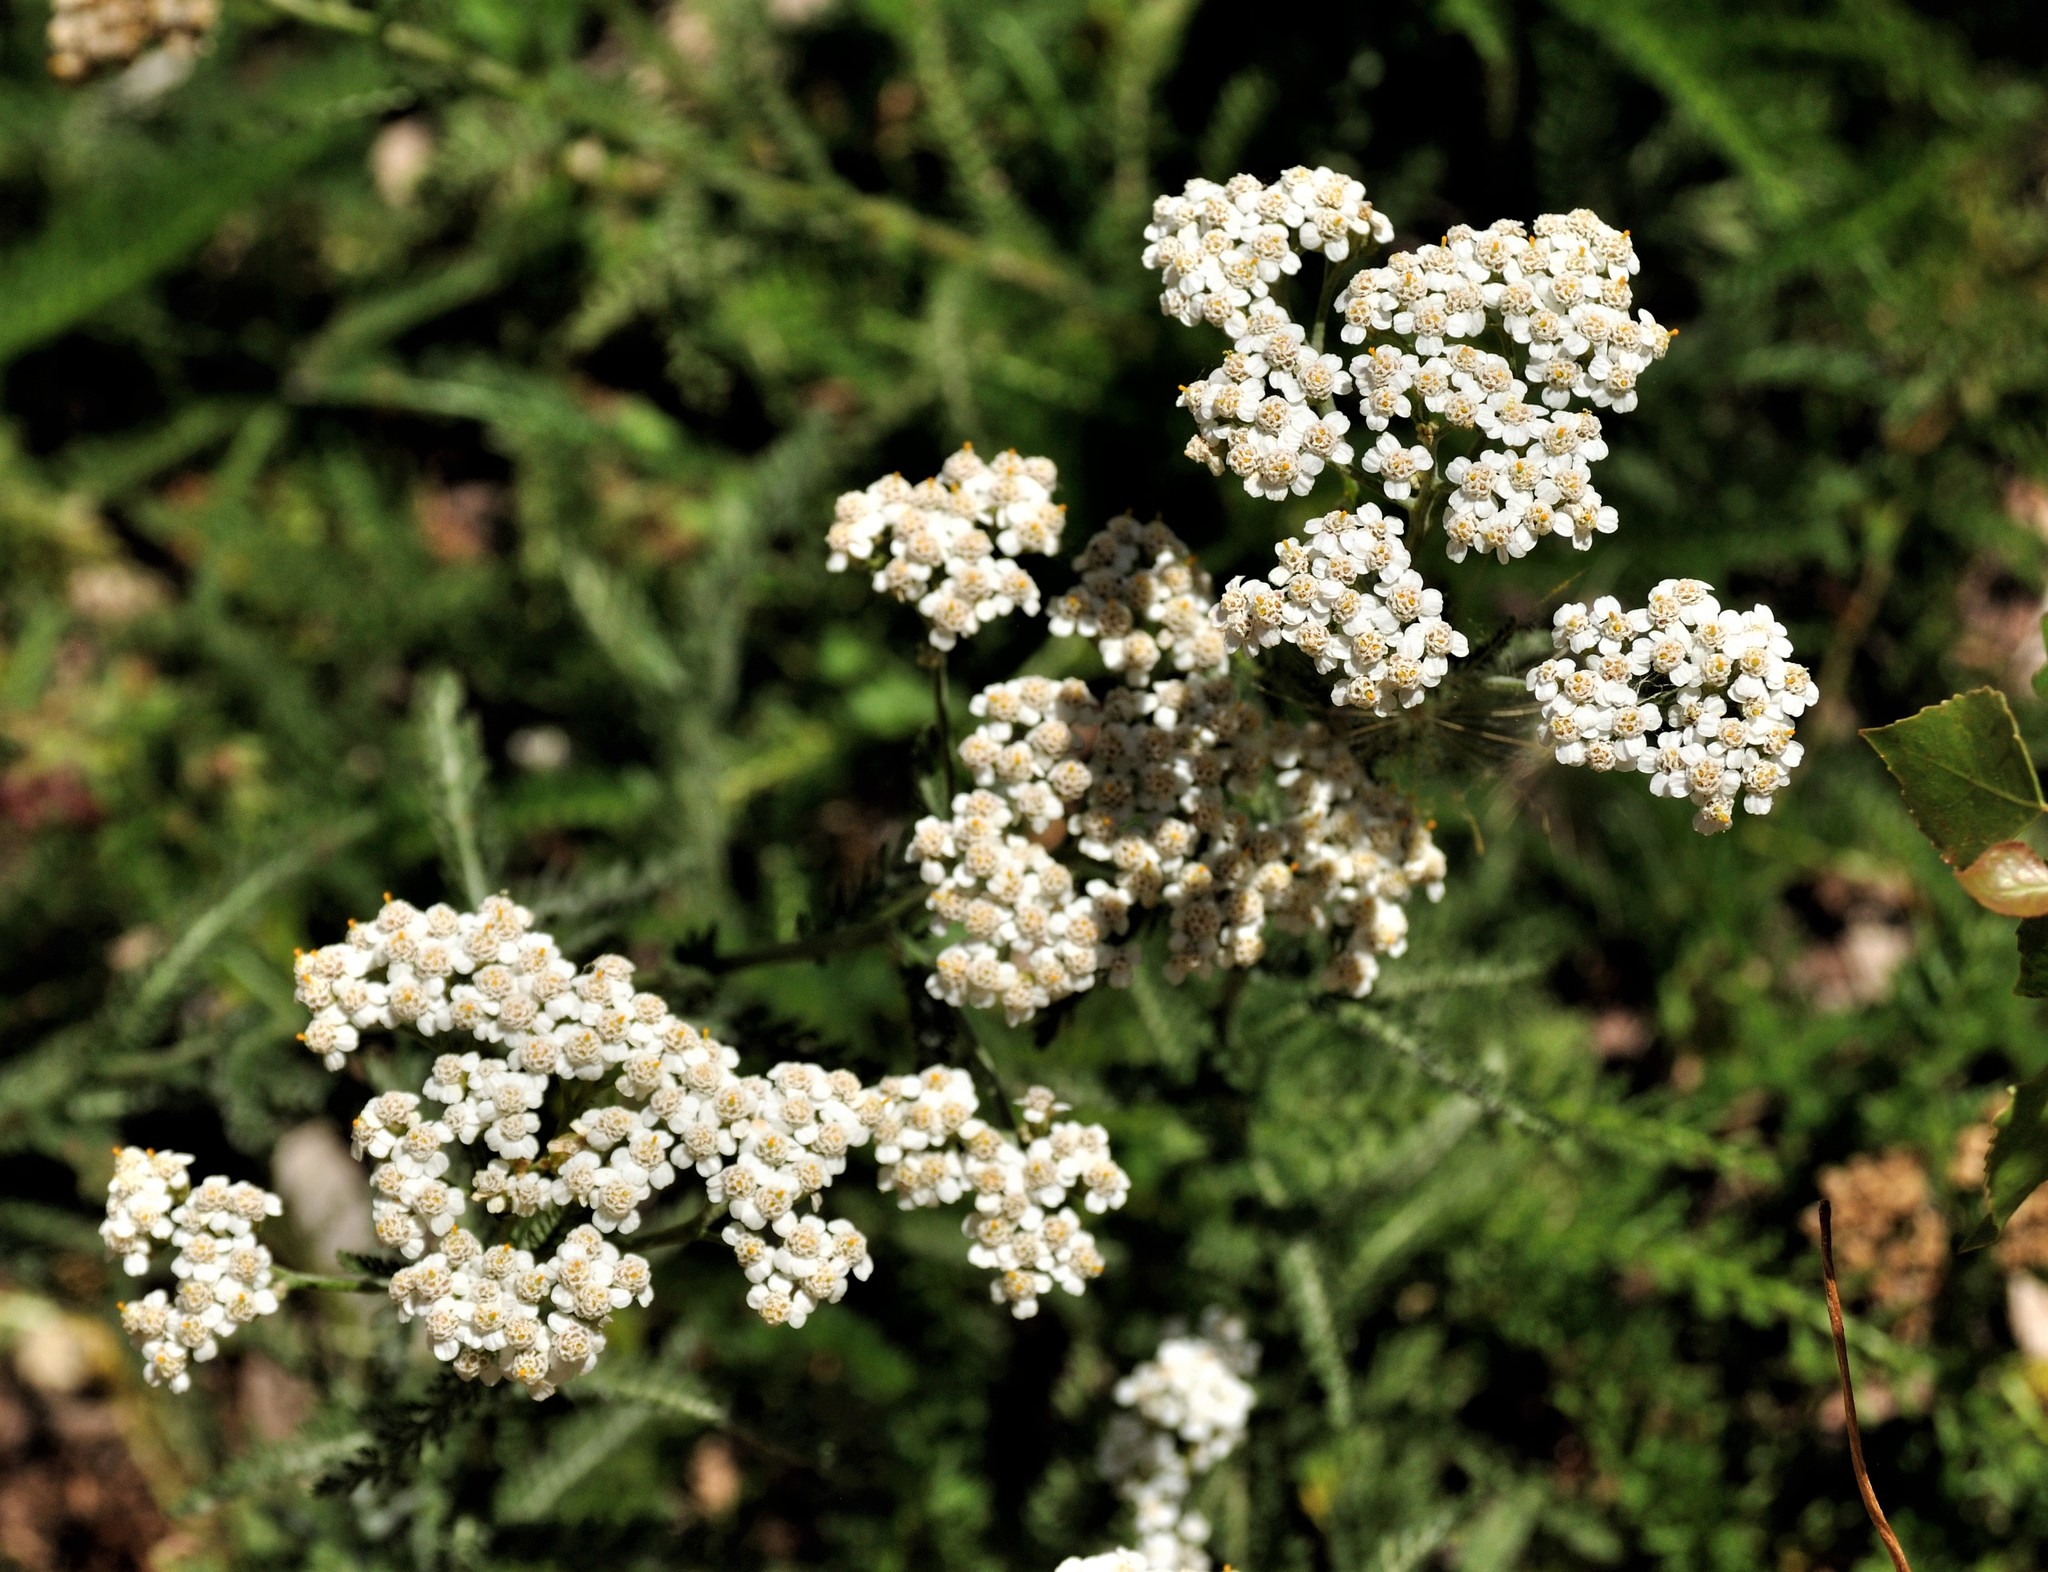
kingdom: Plantae
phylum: Tracheophyta
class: Magnoliopsida
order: Asterales
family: Asteraceae
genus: Achillea
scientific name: Achillea millefolium
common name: Yarrow
